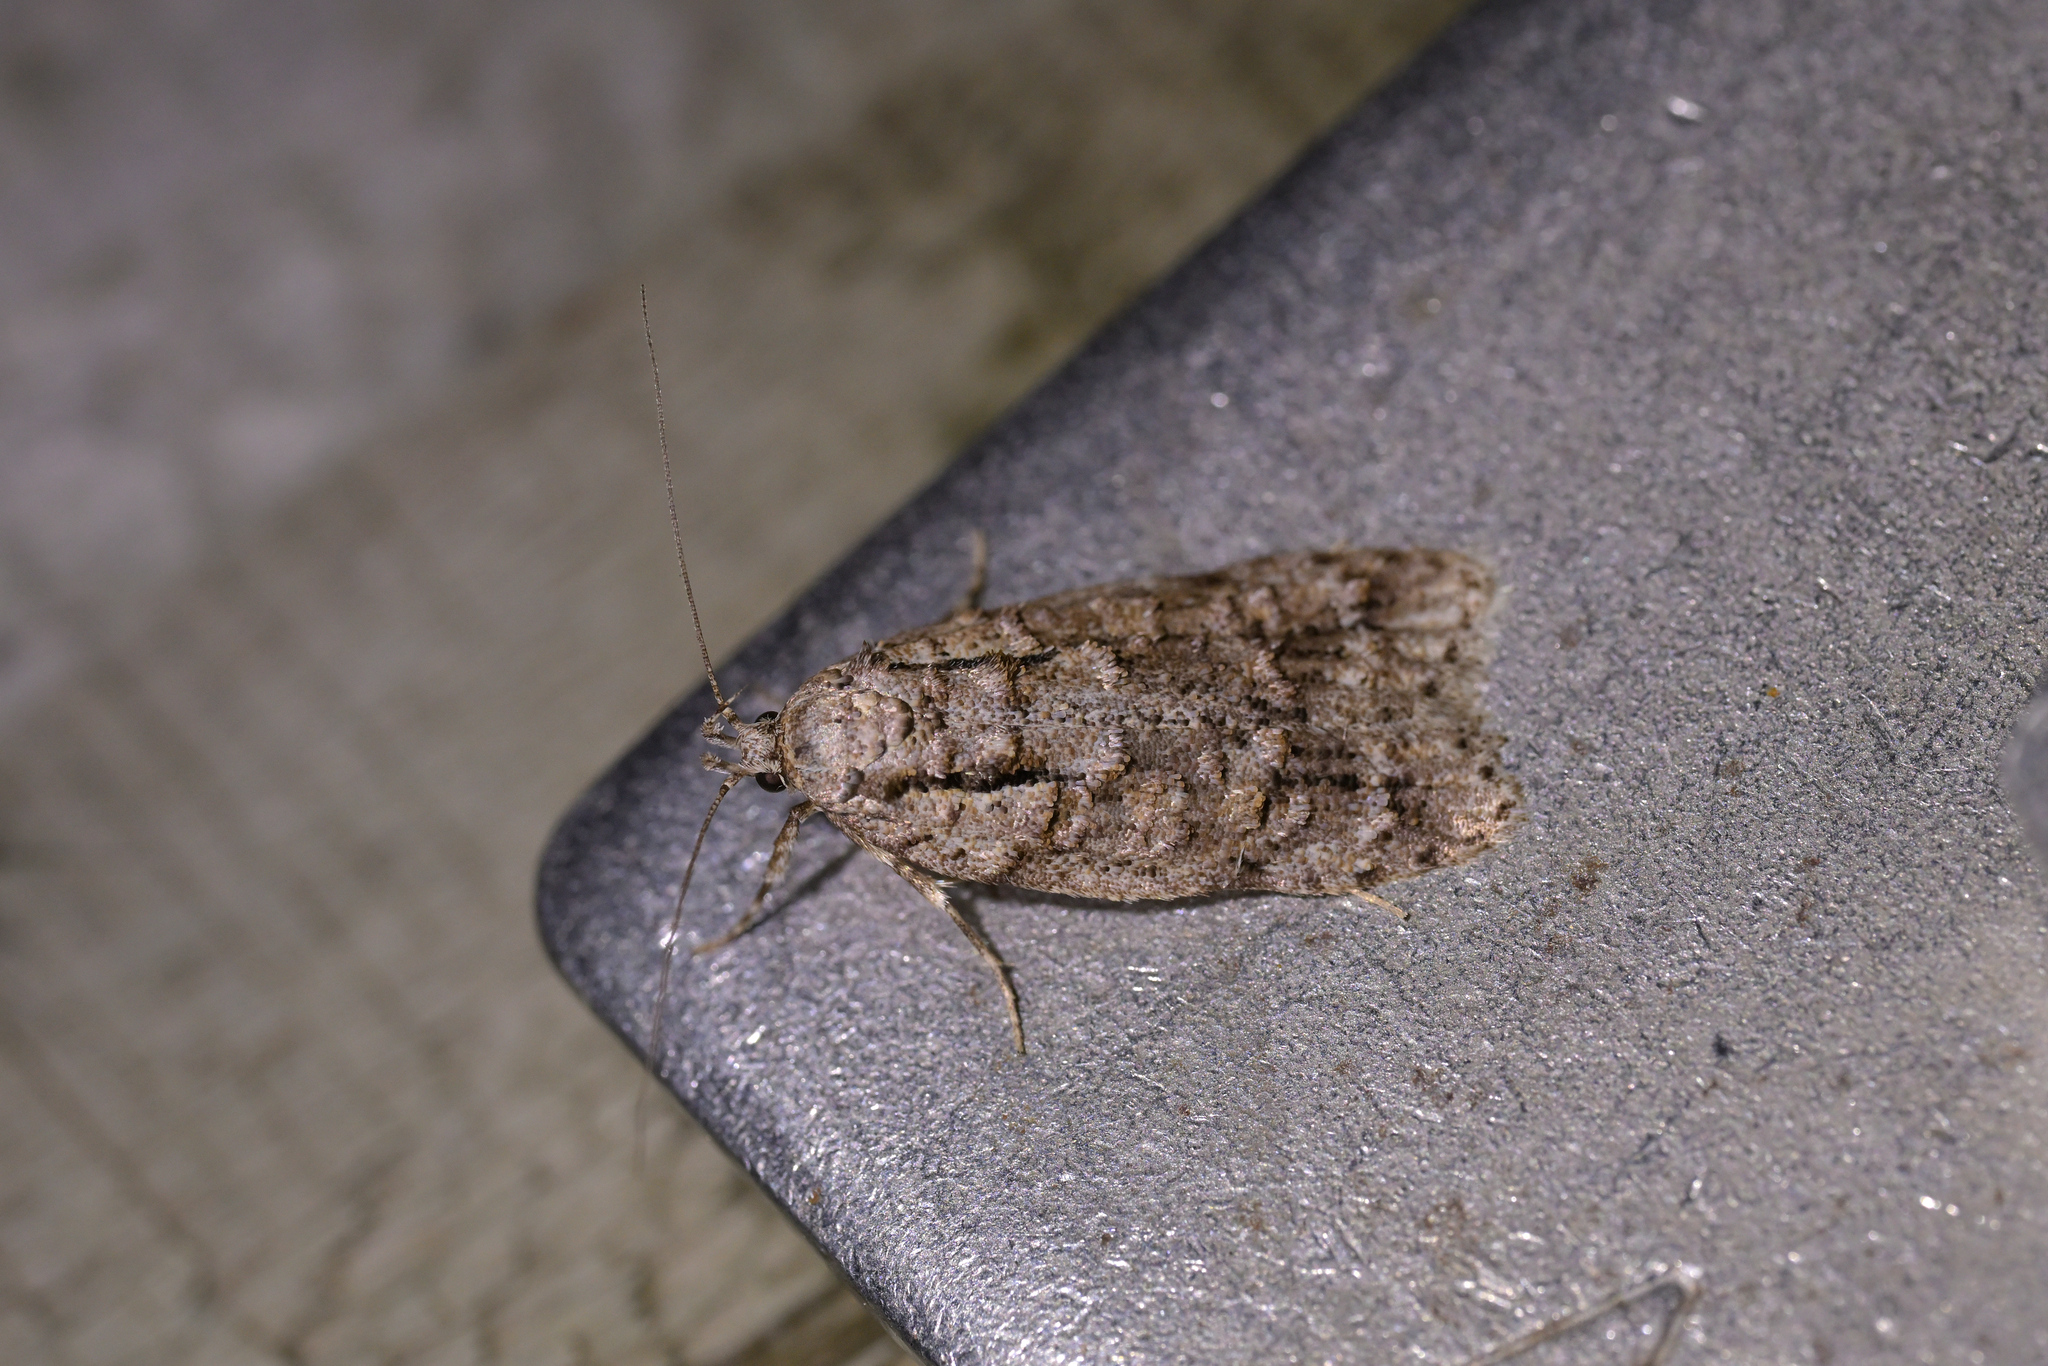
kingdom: Animalia
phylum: Arthropoda
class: Insecta
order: Lepidoptera
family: Oecophoridae
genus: Izatha
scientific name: Izatha attactella
